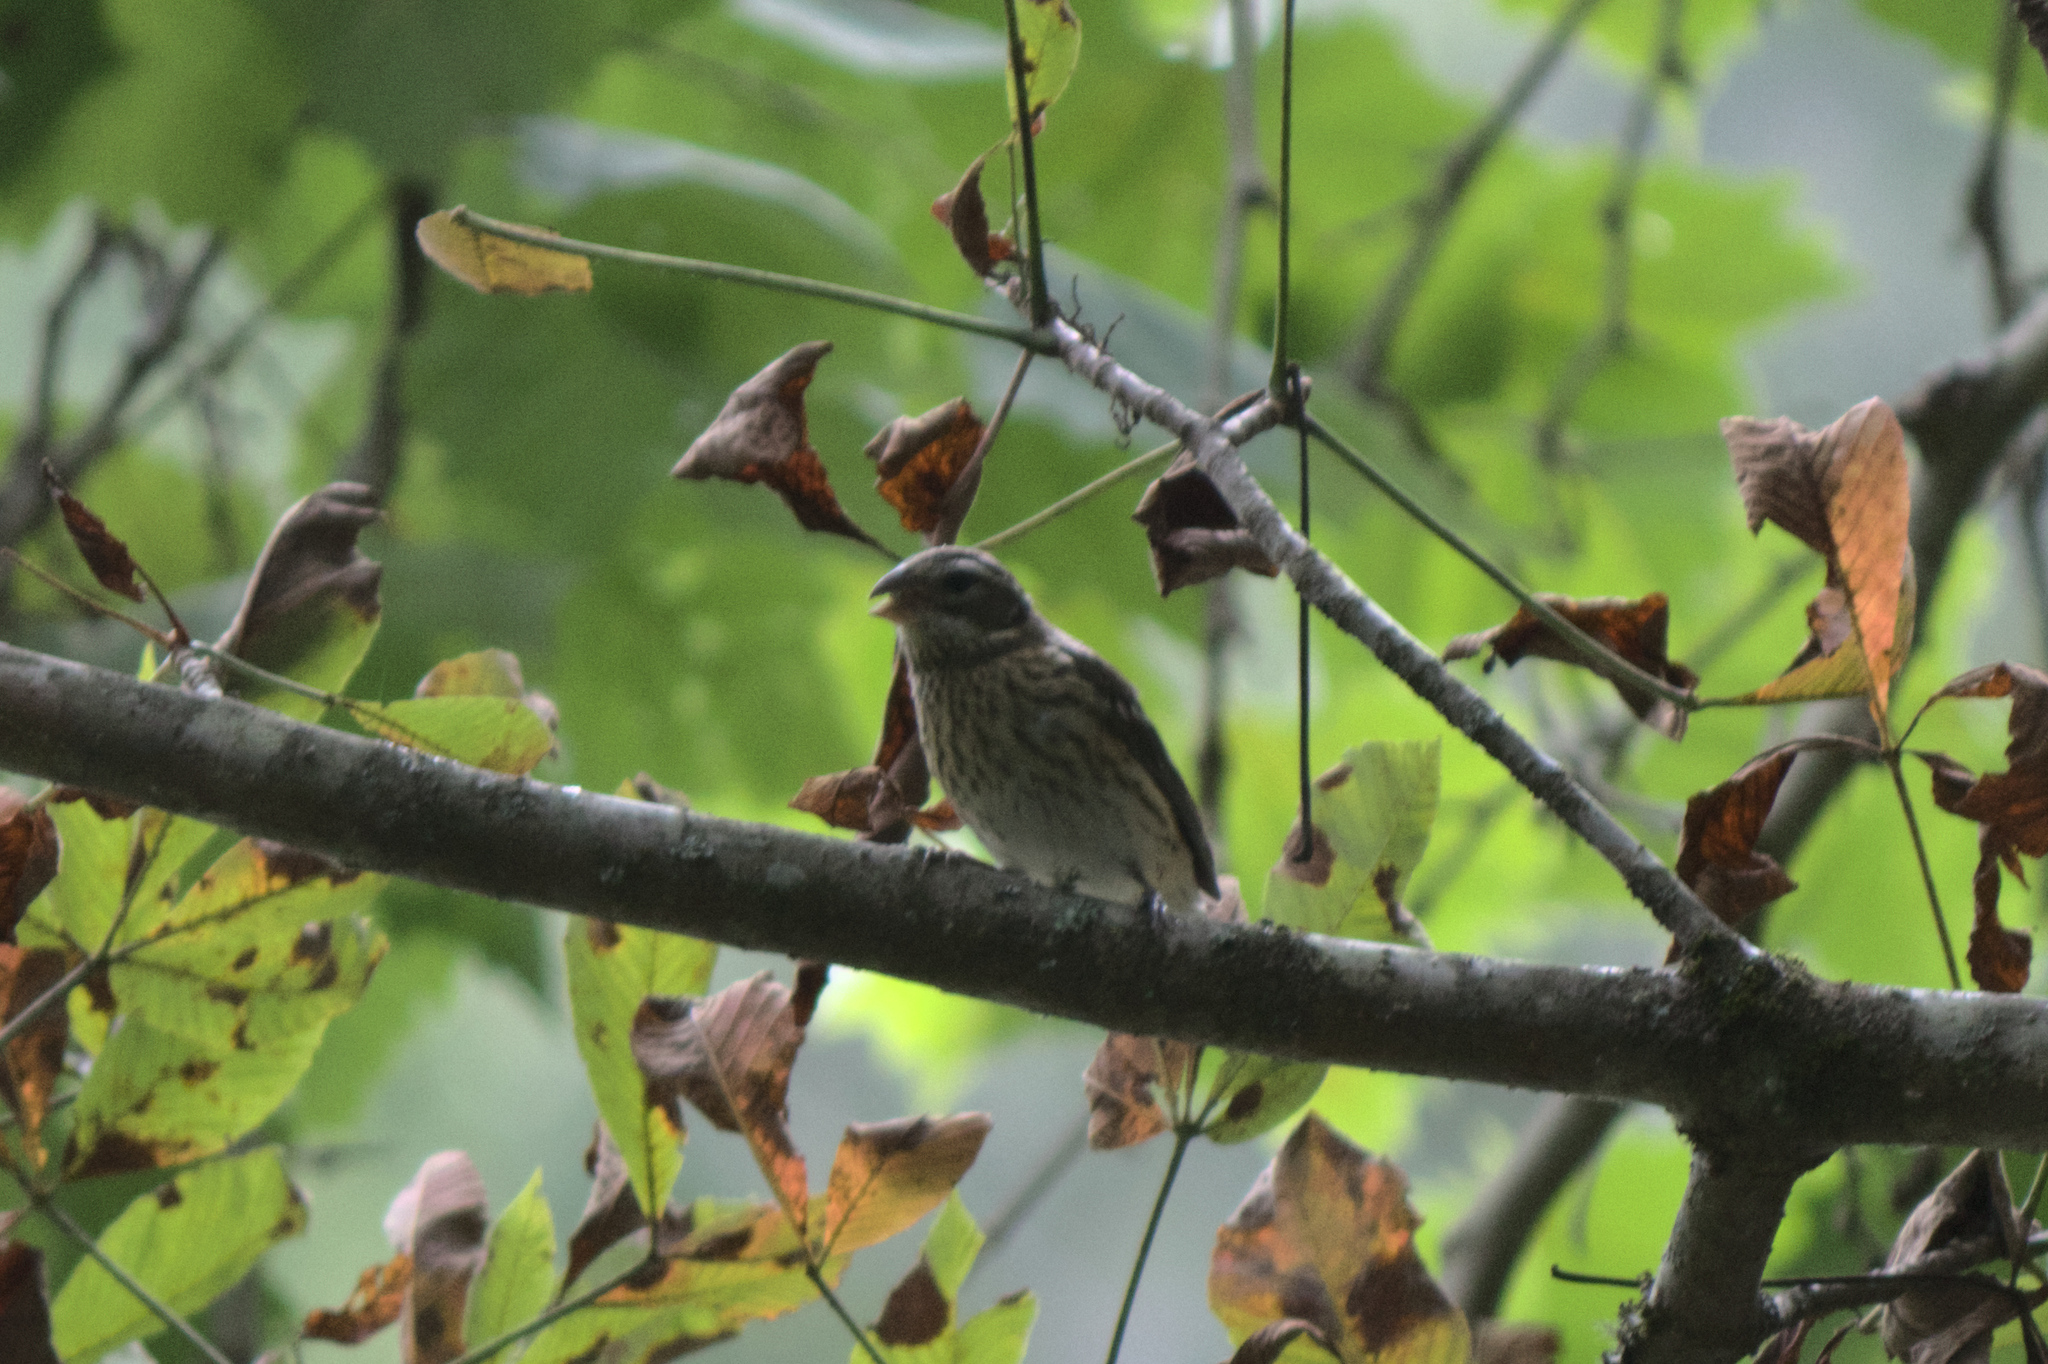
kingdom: Animalia
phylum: Chordata
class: Aves
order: Passeriformes
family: Cardinalidae
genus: Pheucticus
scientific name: Pheucticus ludovicianus
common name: Rose-breasted grosbeak
